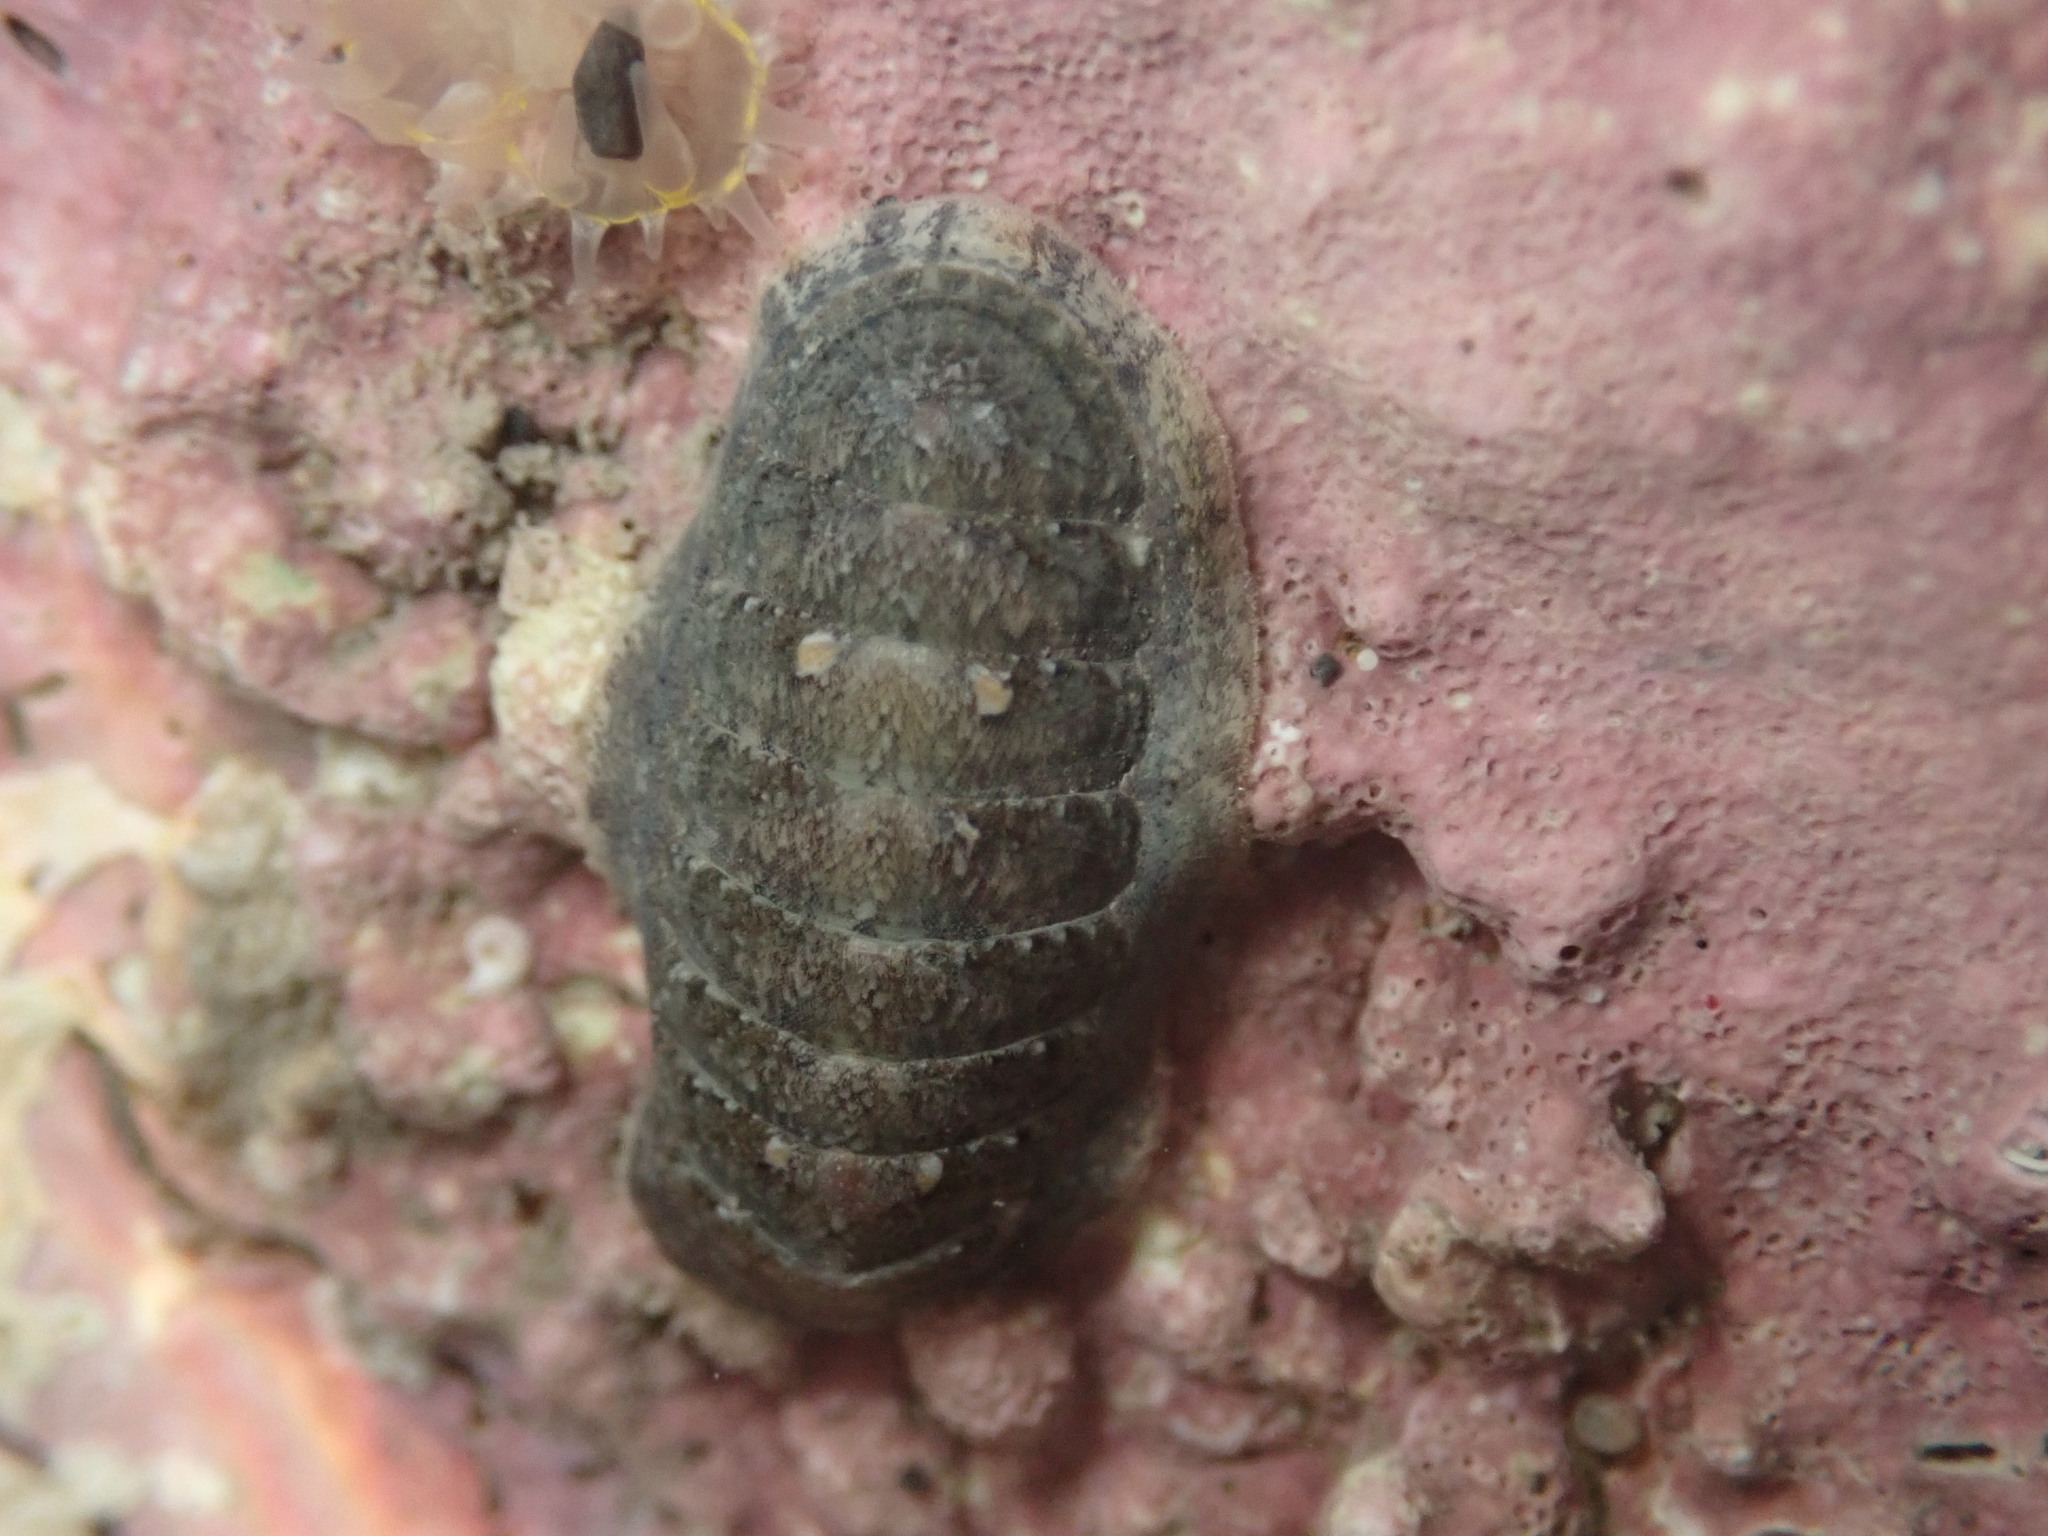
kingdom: Animalia
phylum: Mollusca
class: Polyplacophora
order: Chitonida
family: Ischnochitonidae
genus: Ischnochiton
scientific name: Ischnochiton maorianus
